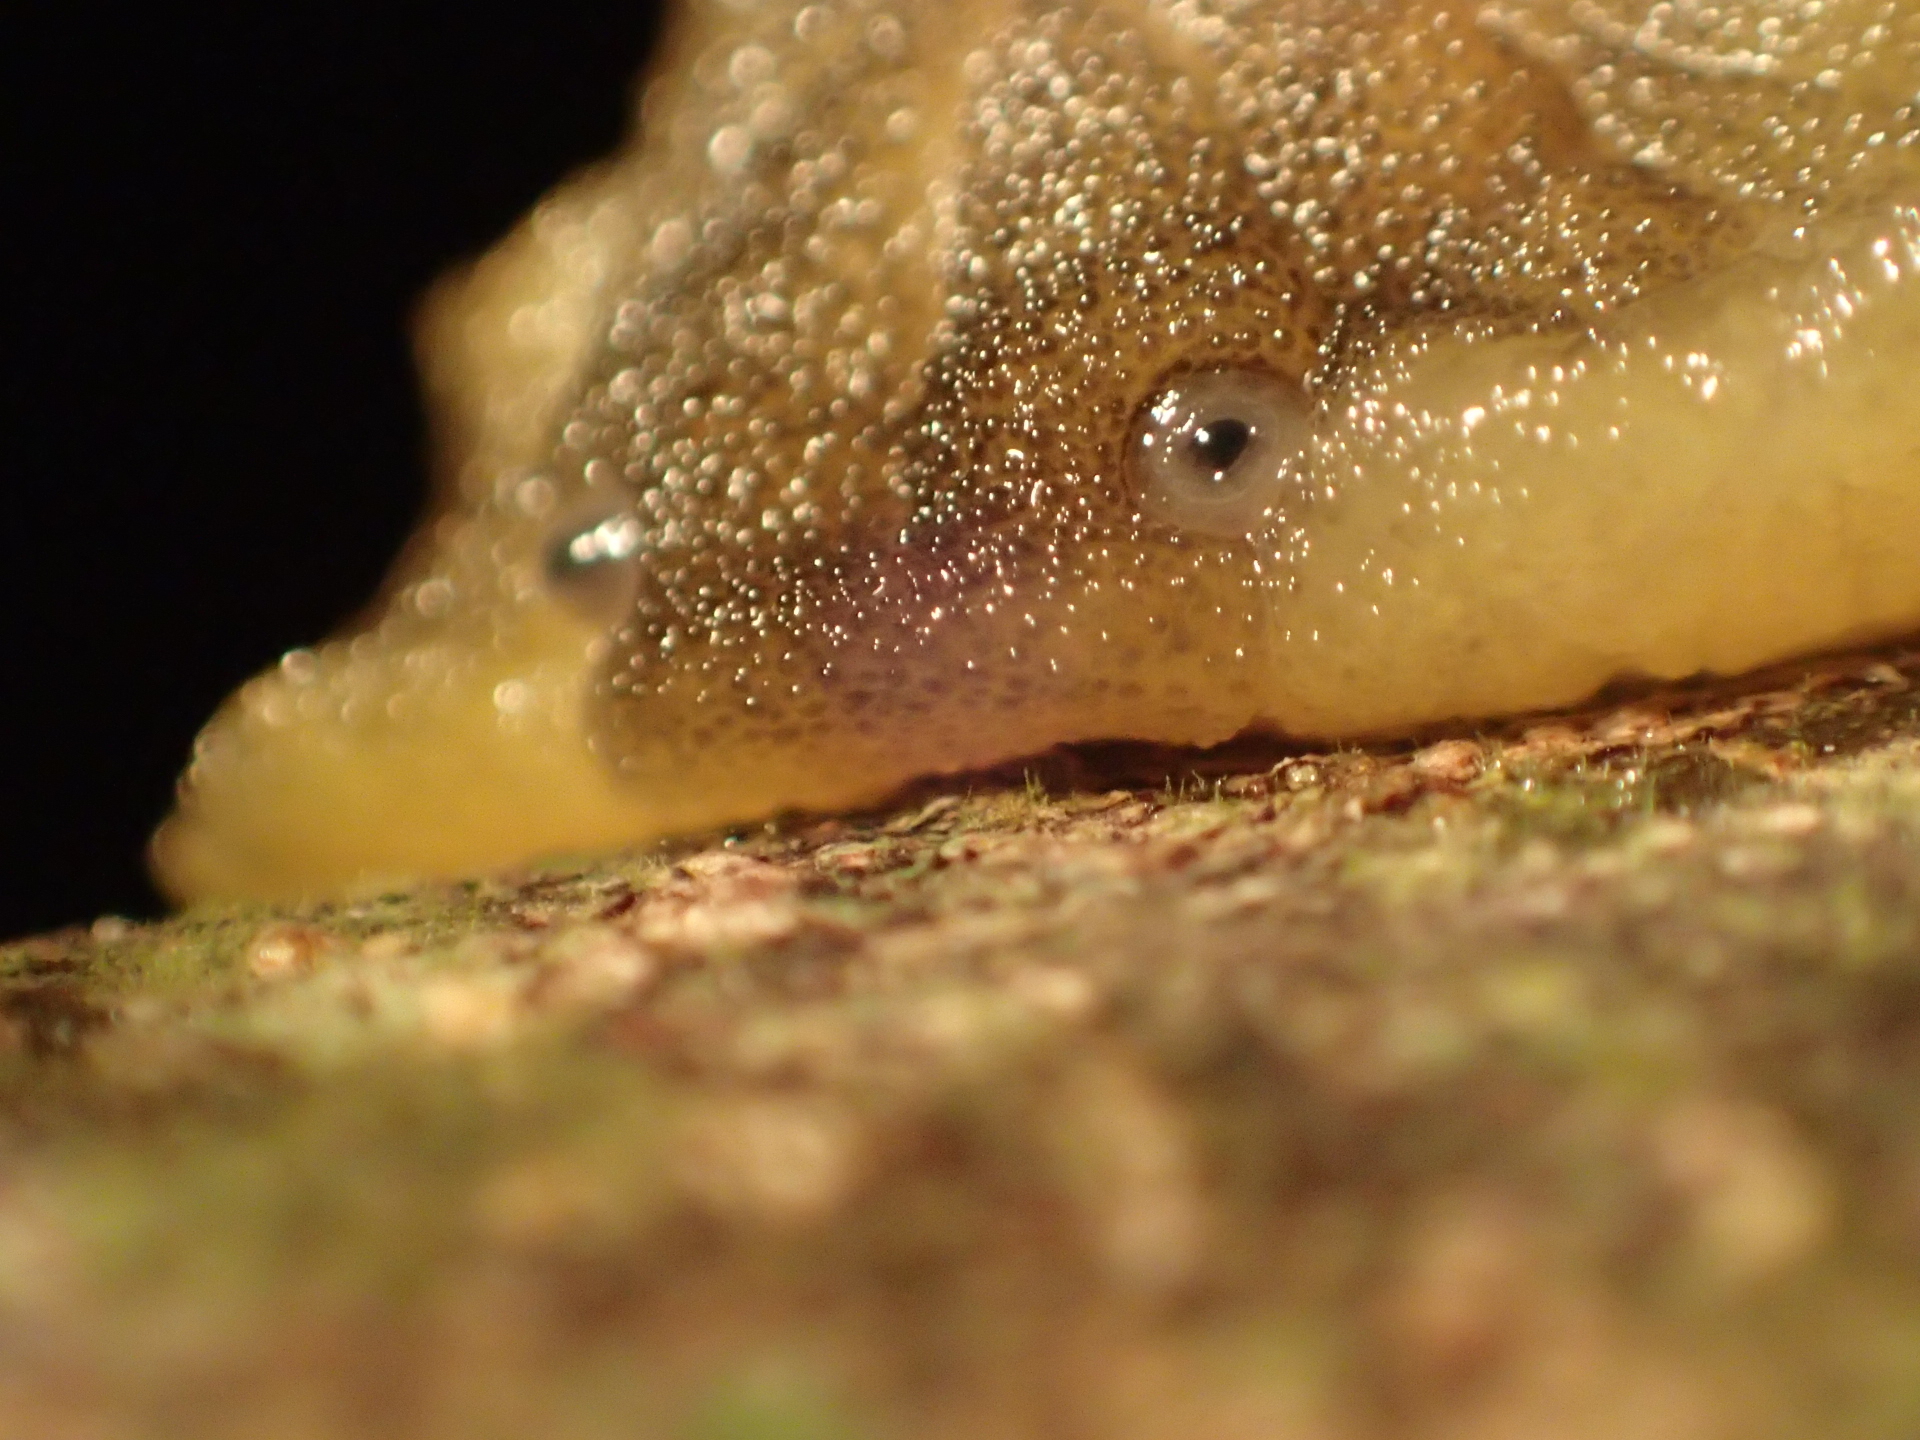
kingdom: Animalia
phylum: Mollusca
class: Gastropoda
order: Stylommatophora
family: Athoracophoridae
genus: Athoracophorus
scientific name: Athoracophorus papillatus
